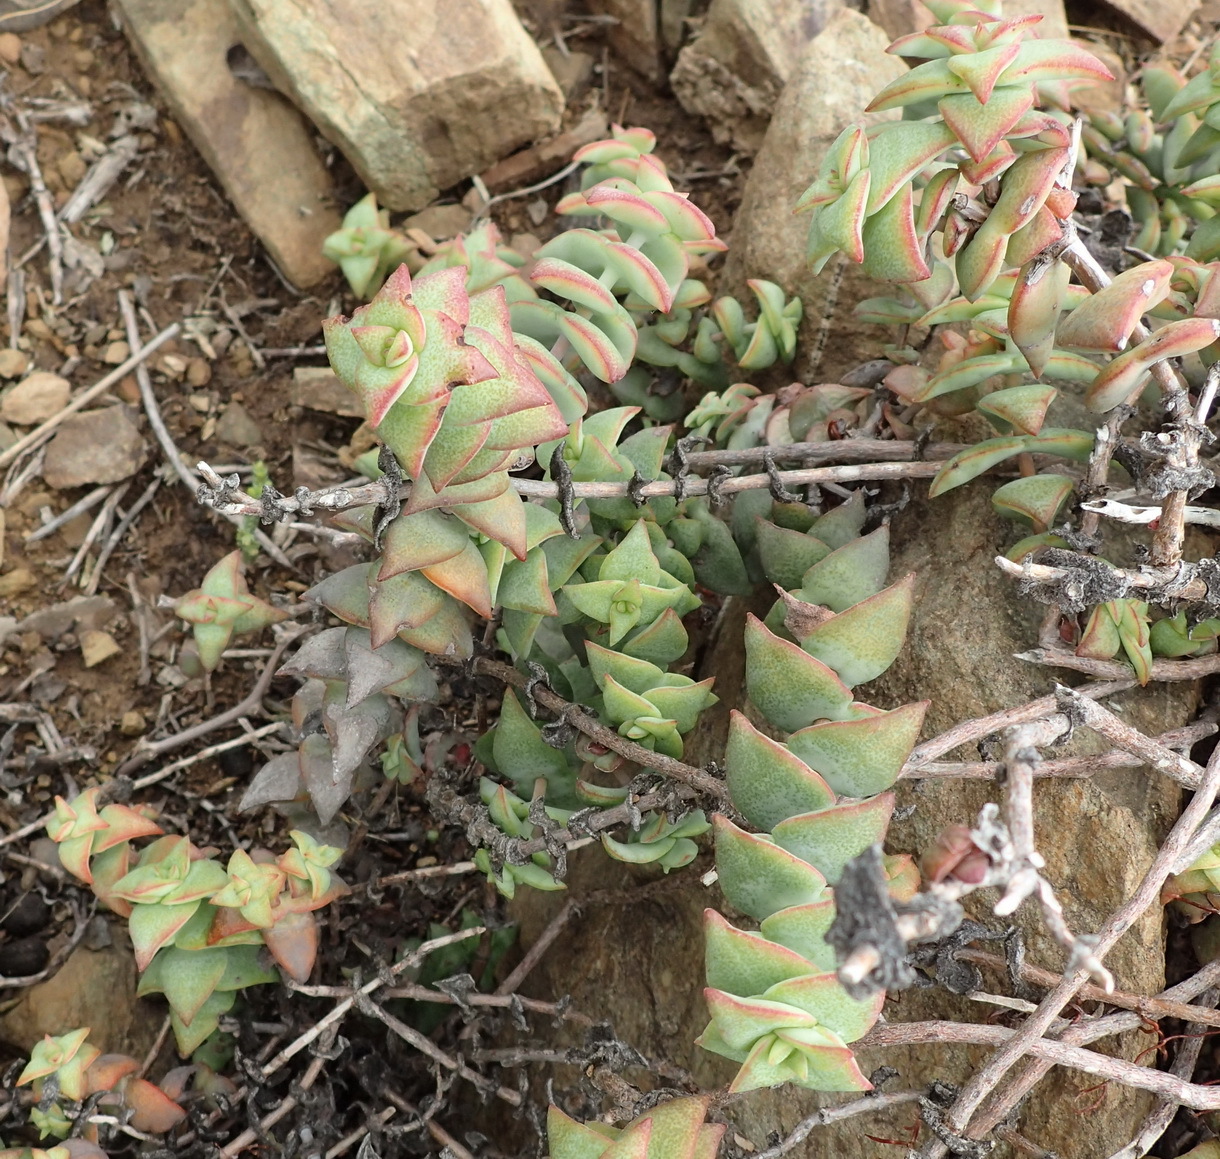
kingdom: Plantae
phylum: Tracheophyta
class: Magnoliopsida
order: Saxifragales
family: Crassulaceae
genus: Crassula
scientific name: Crassula perforata
